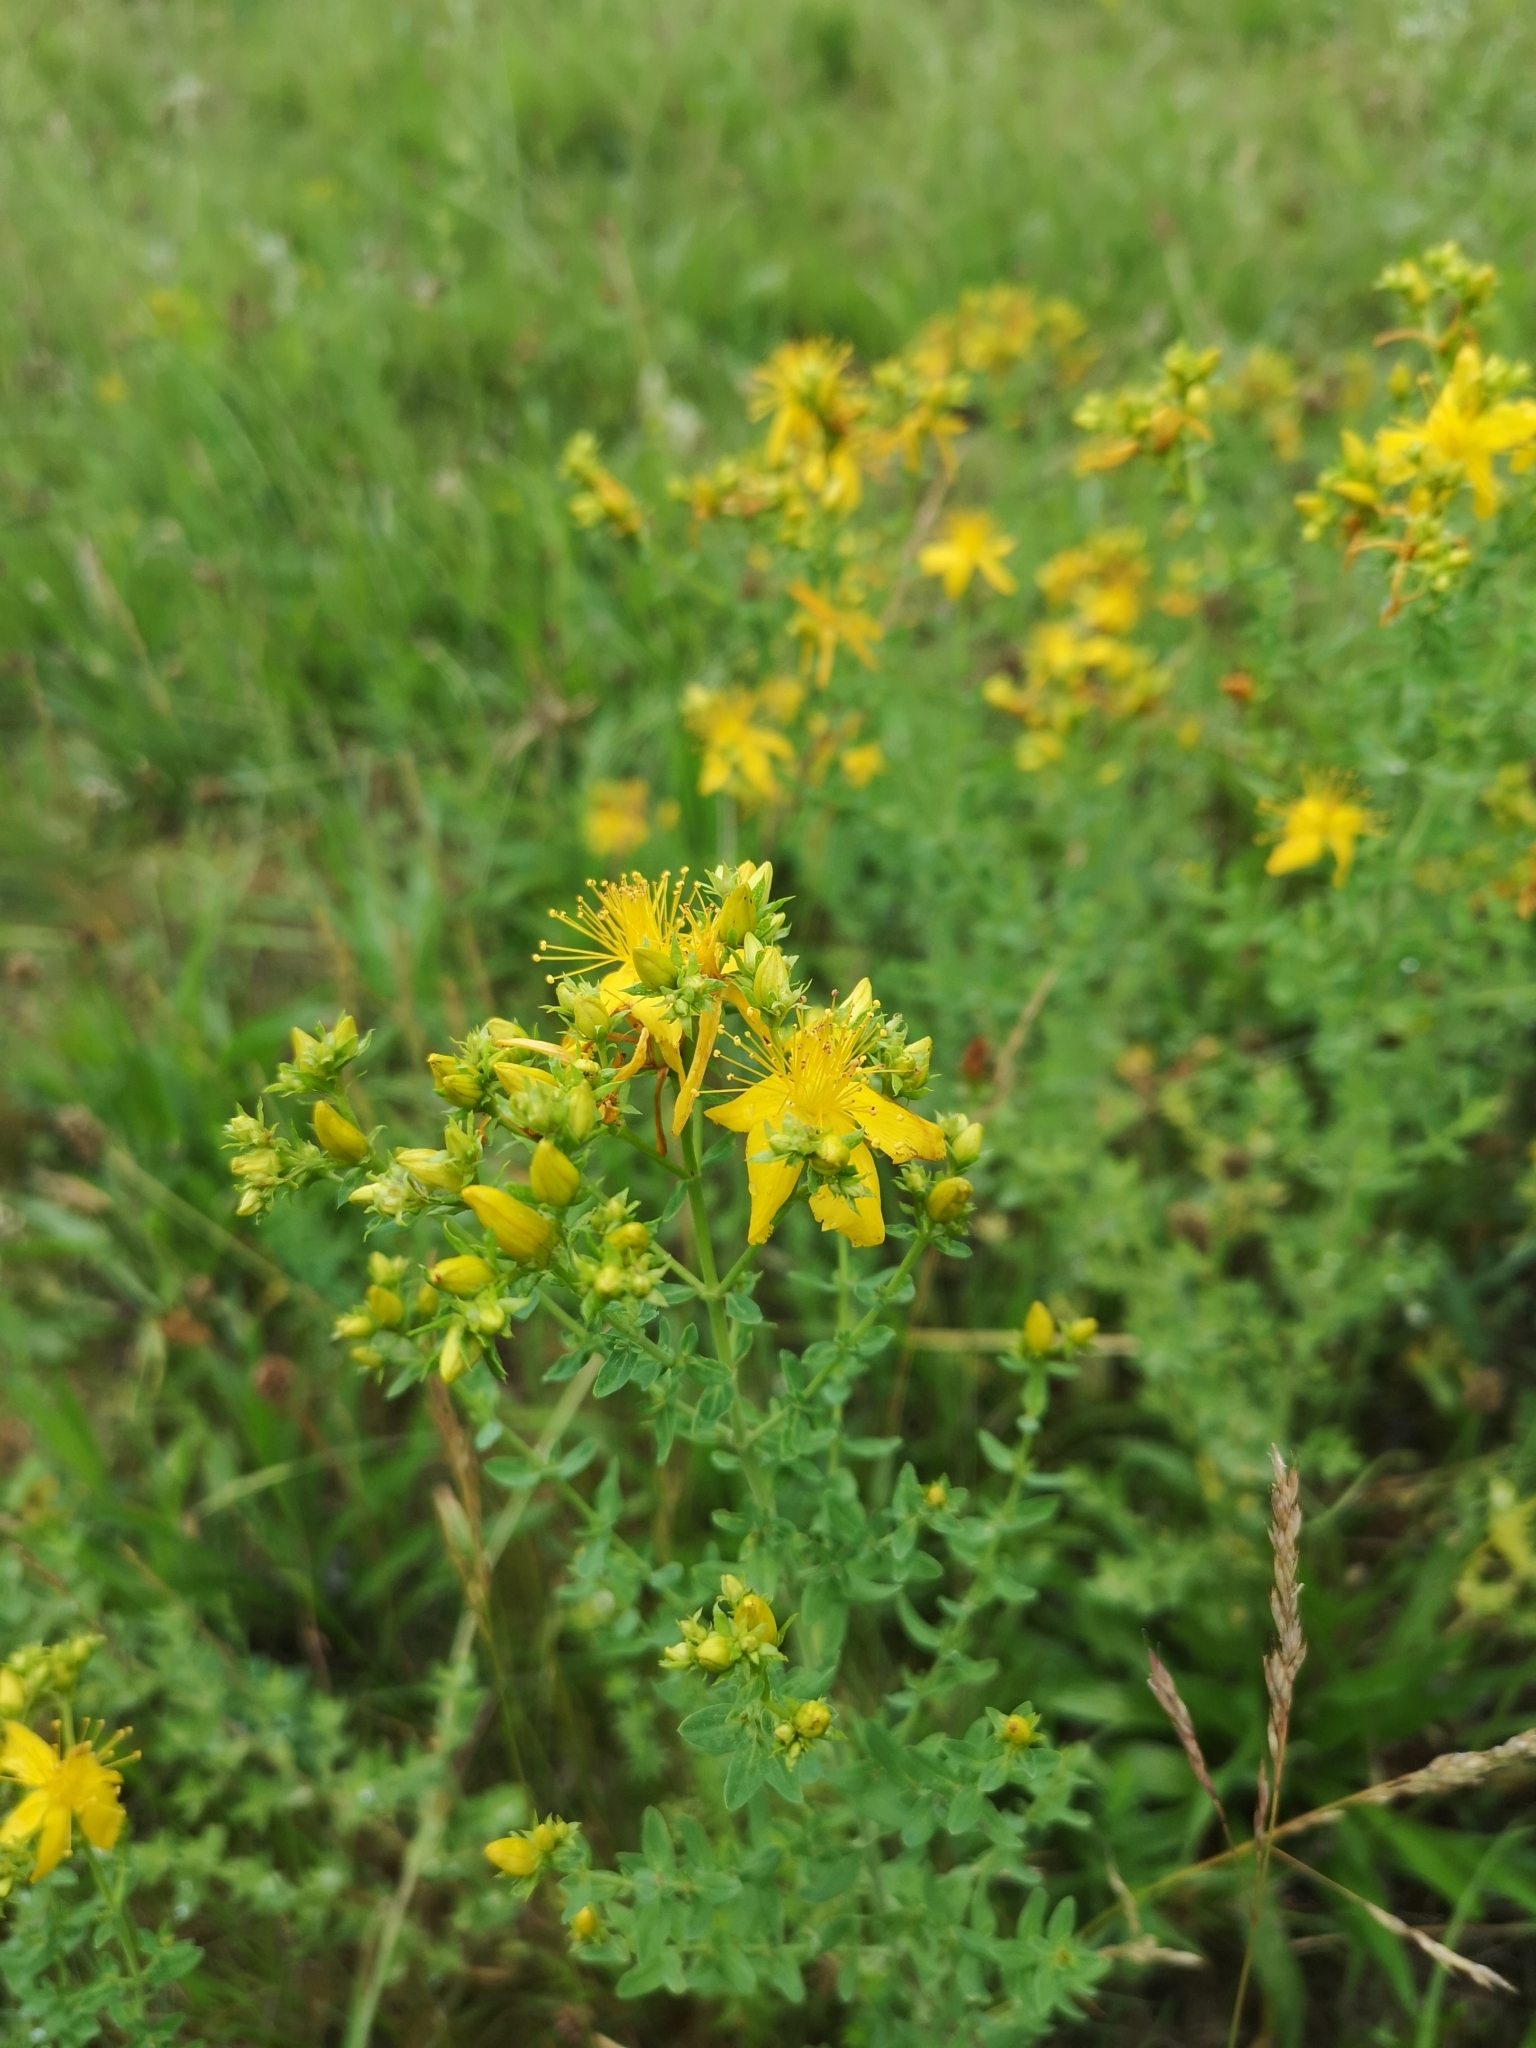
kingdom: Plantae
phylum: Tracheophyta
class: Magnoliopsida
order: Malpighiales
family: Hypericaceae
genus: Hypericum
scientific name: Hypericum perforatum
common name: Common st. johnswort
